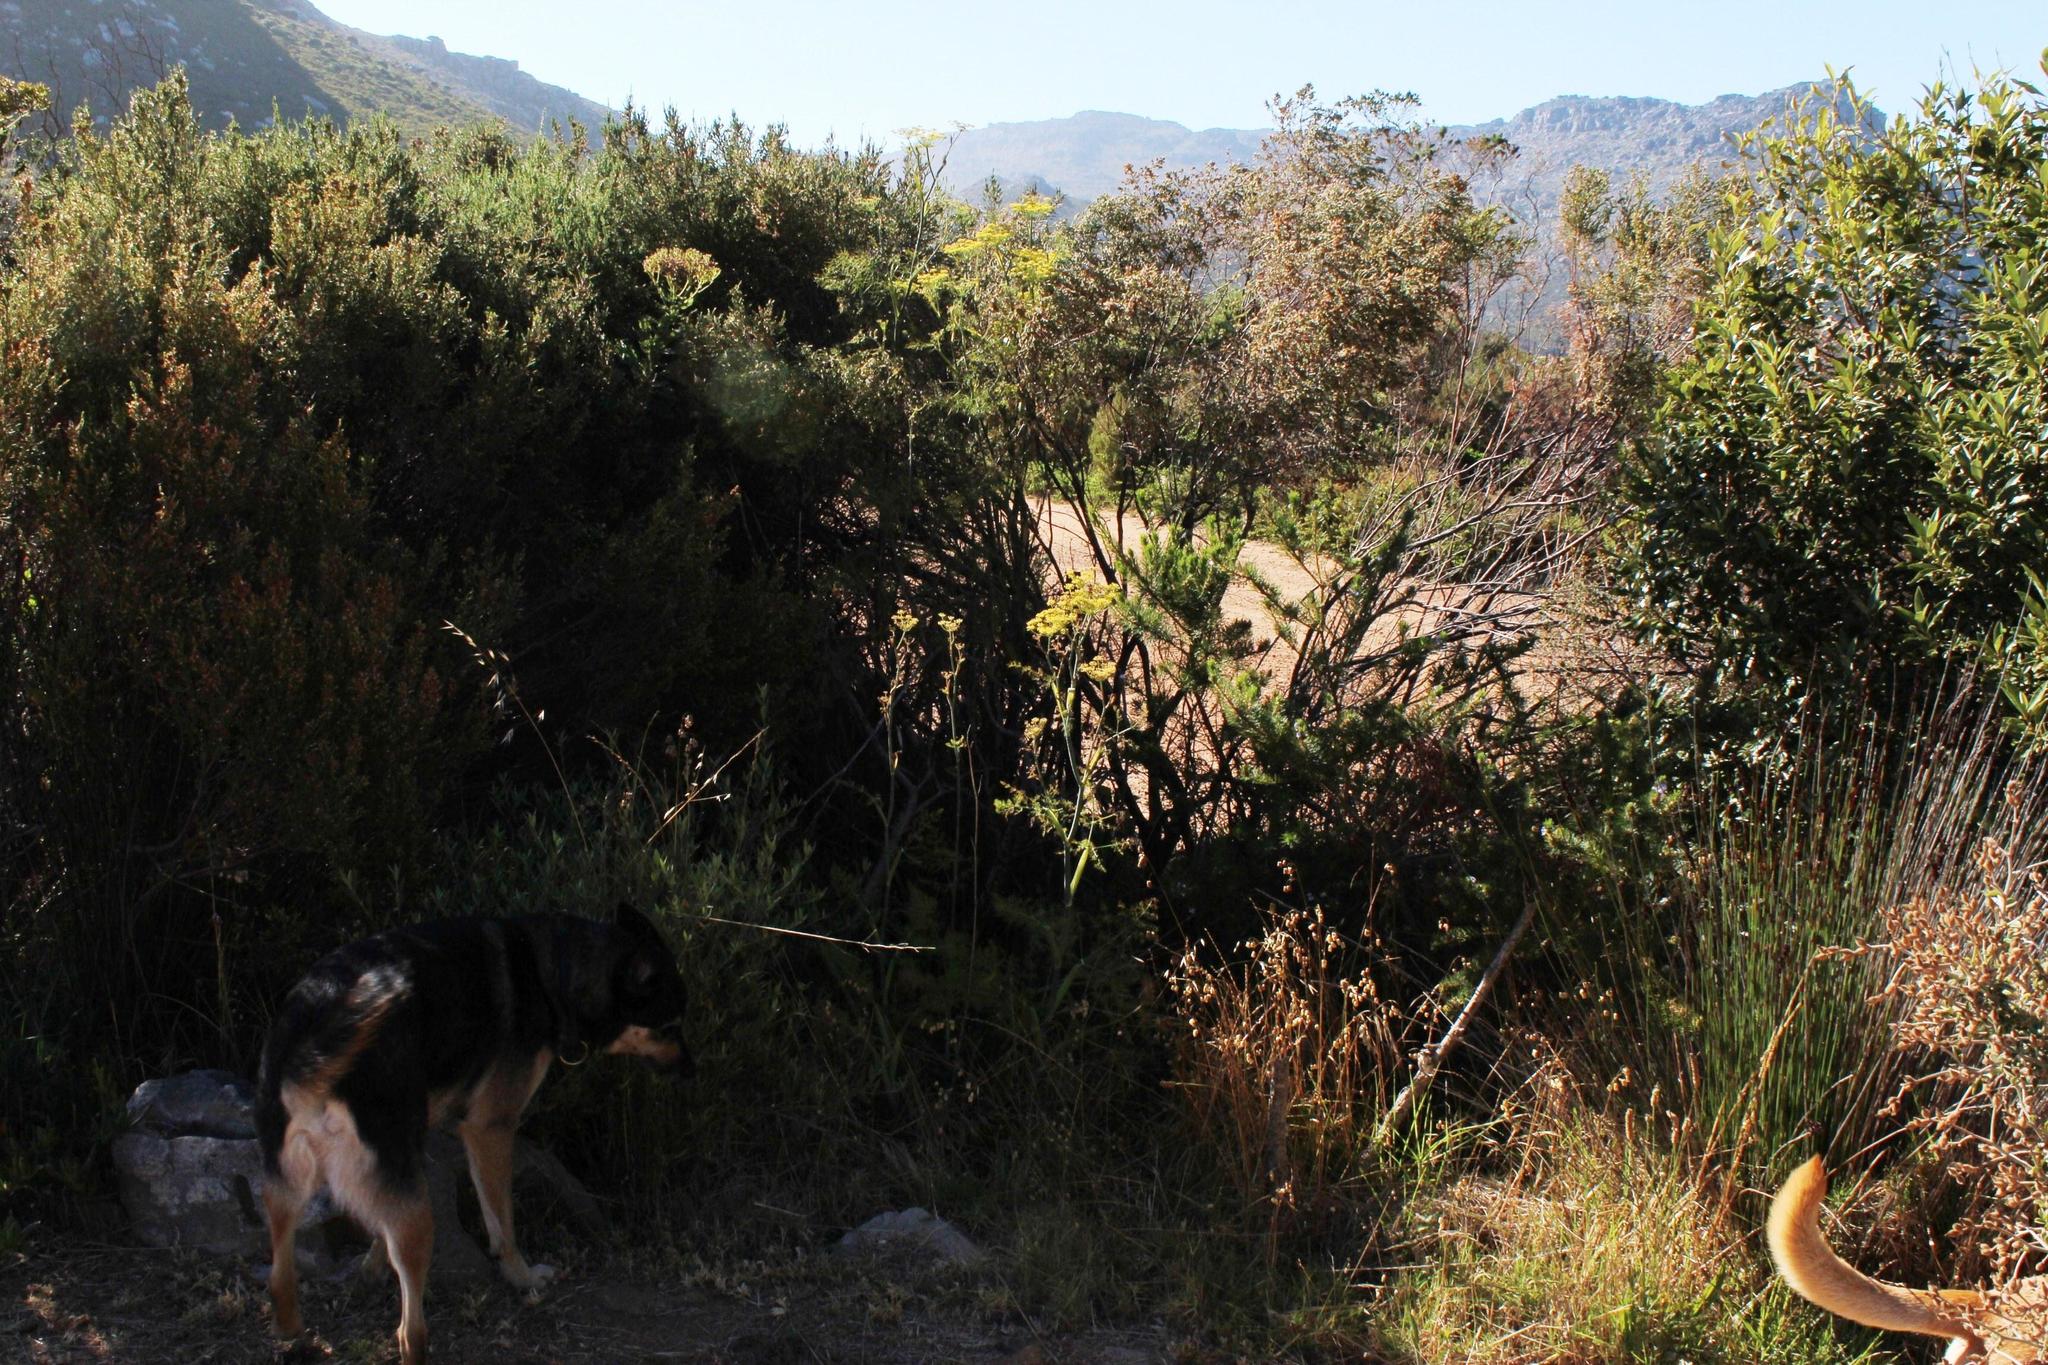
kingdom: Plantae
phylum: Tracheophyta
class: Magnoliopsida
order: Apiales
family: Apiaceae
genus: Foeniculum
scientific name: Foeniculum vulgare
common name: Fennel
